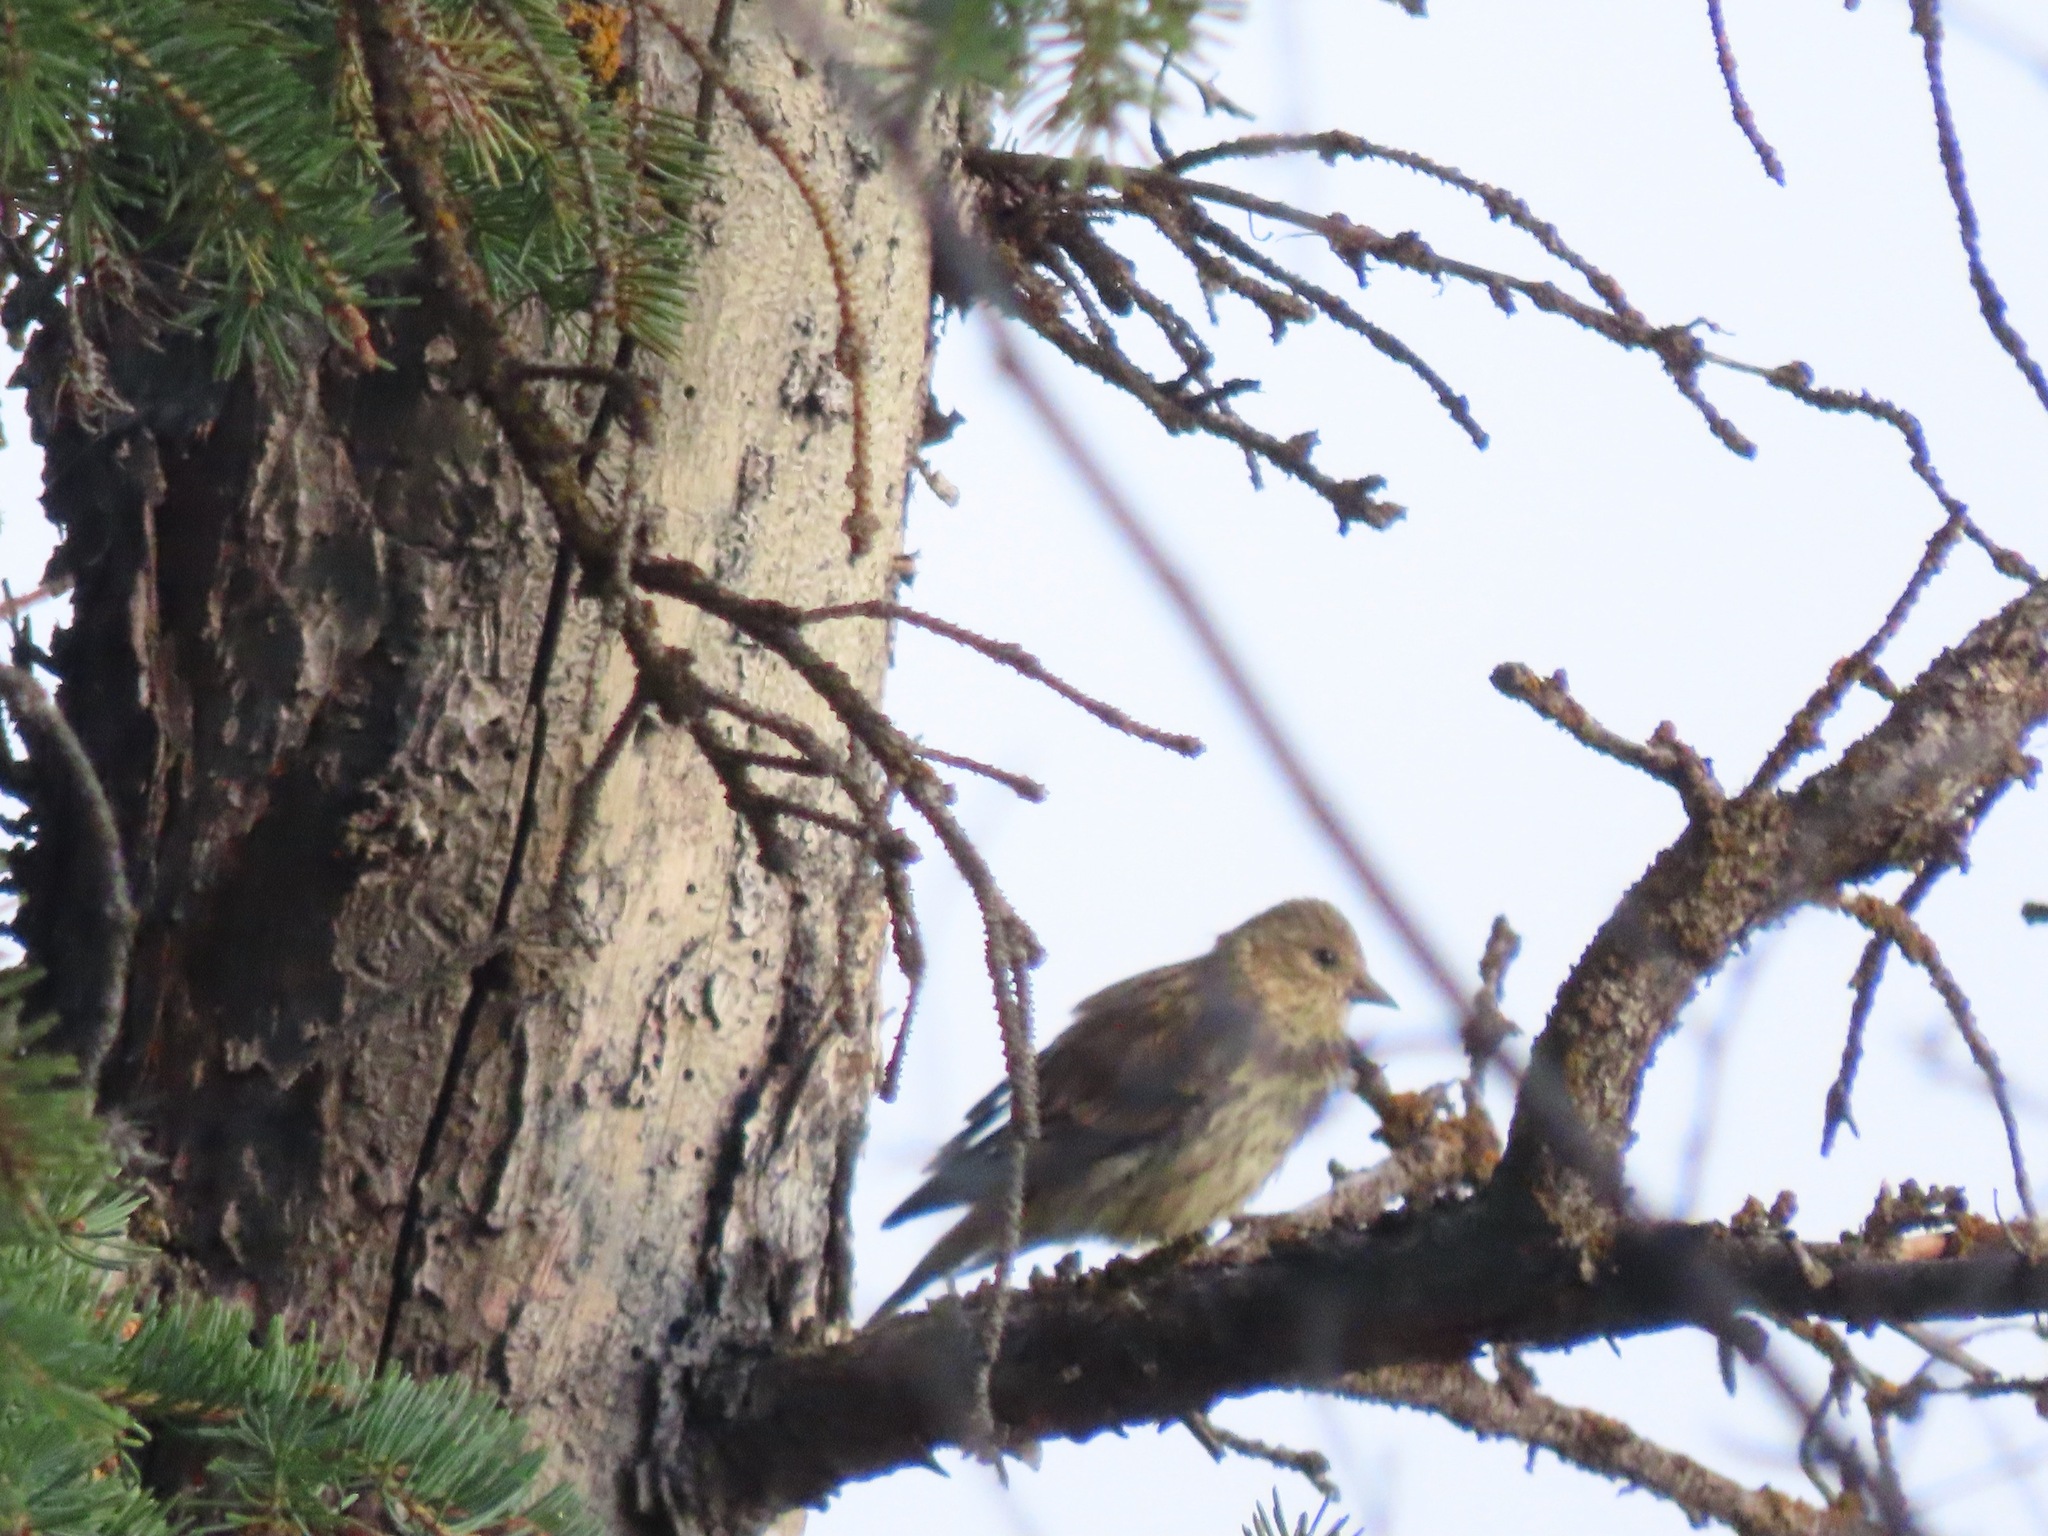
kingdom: Animalia
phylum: Chordata
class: Aves
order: Passeriformes
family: Fringillidae
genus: Spinus
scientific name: Spinus pinus
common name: Pine siskin
